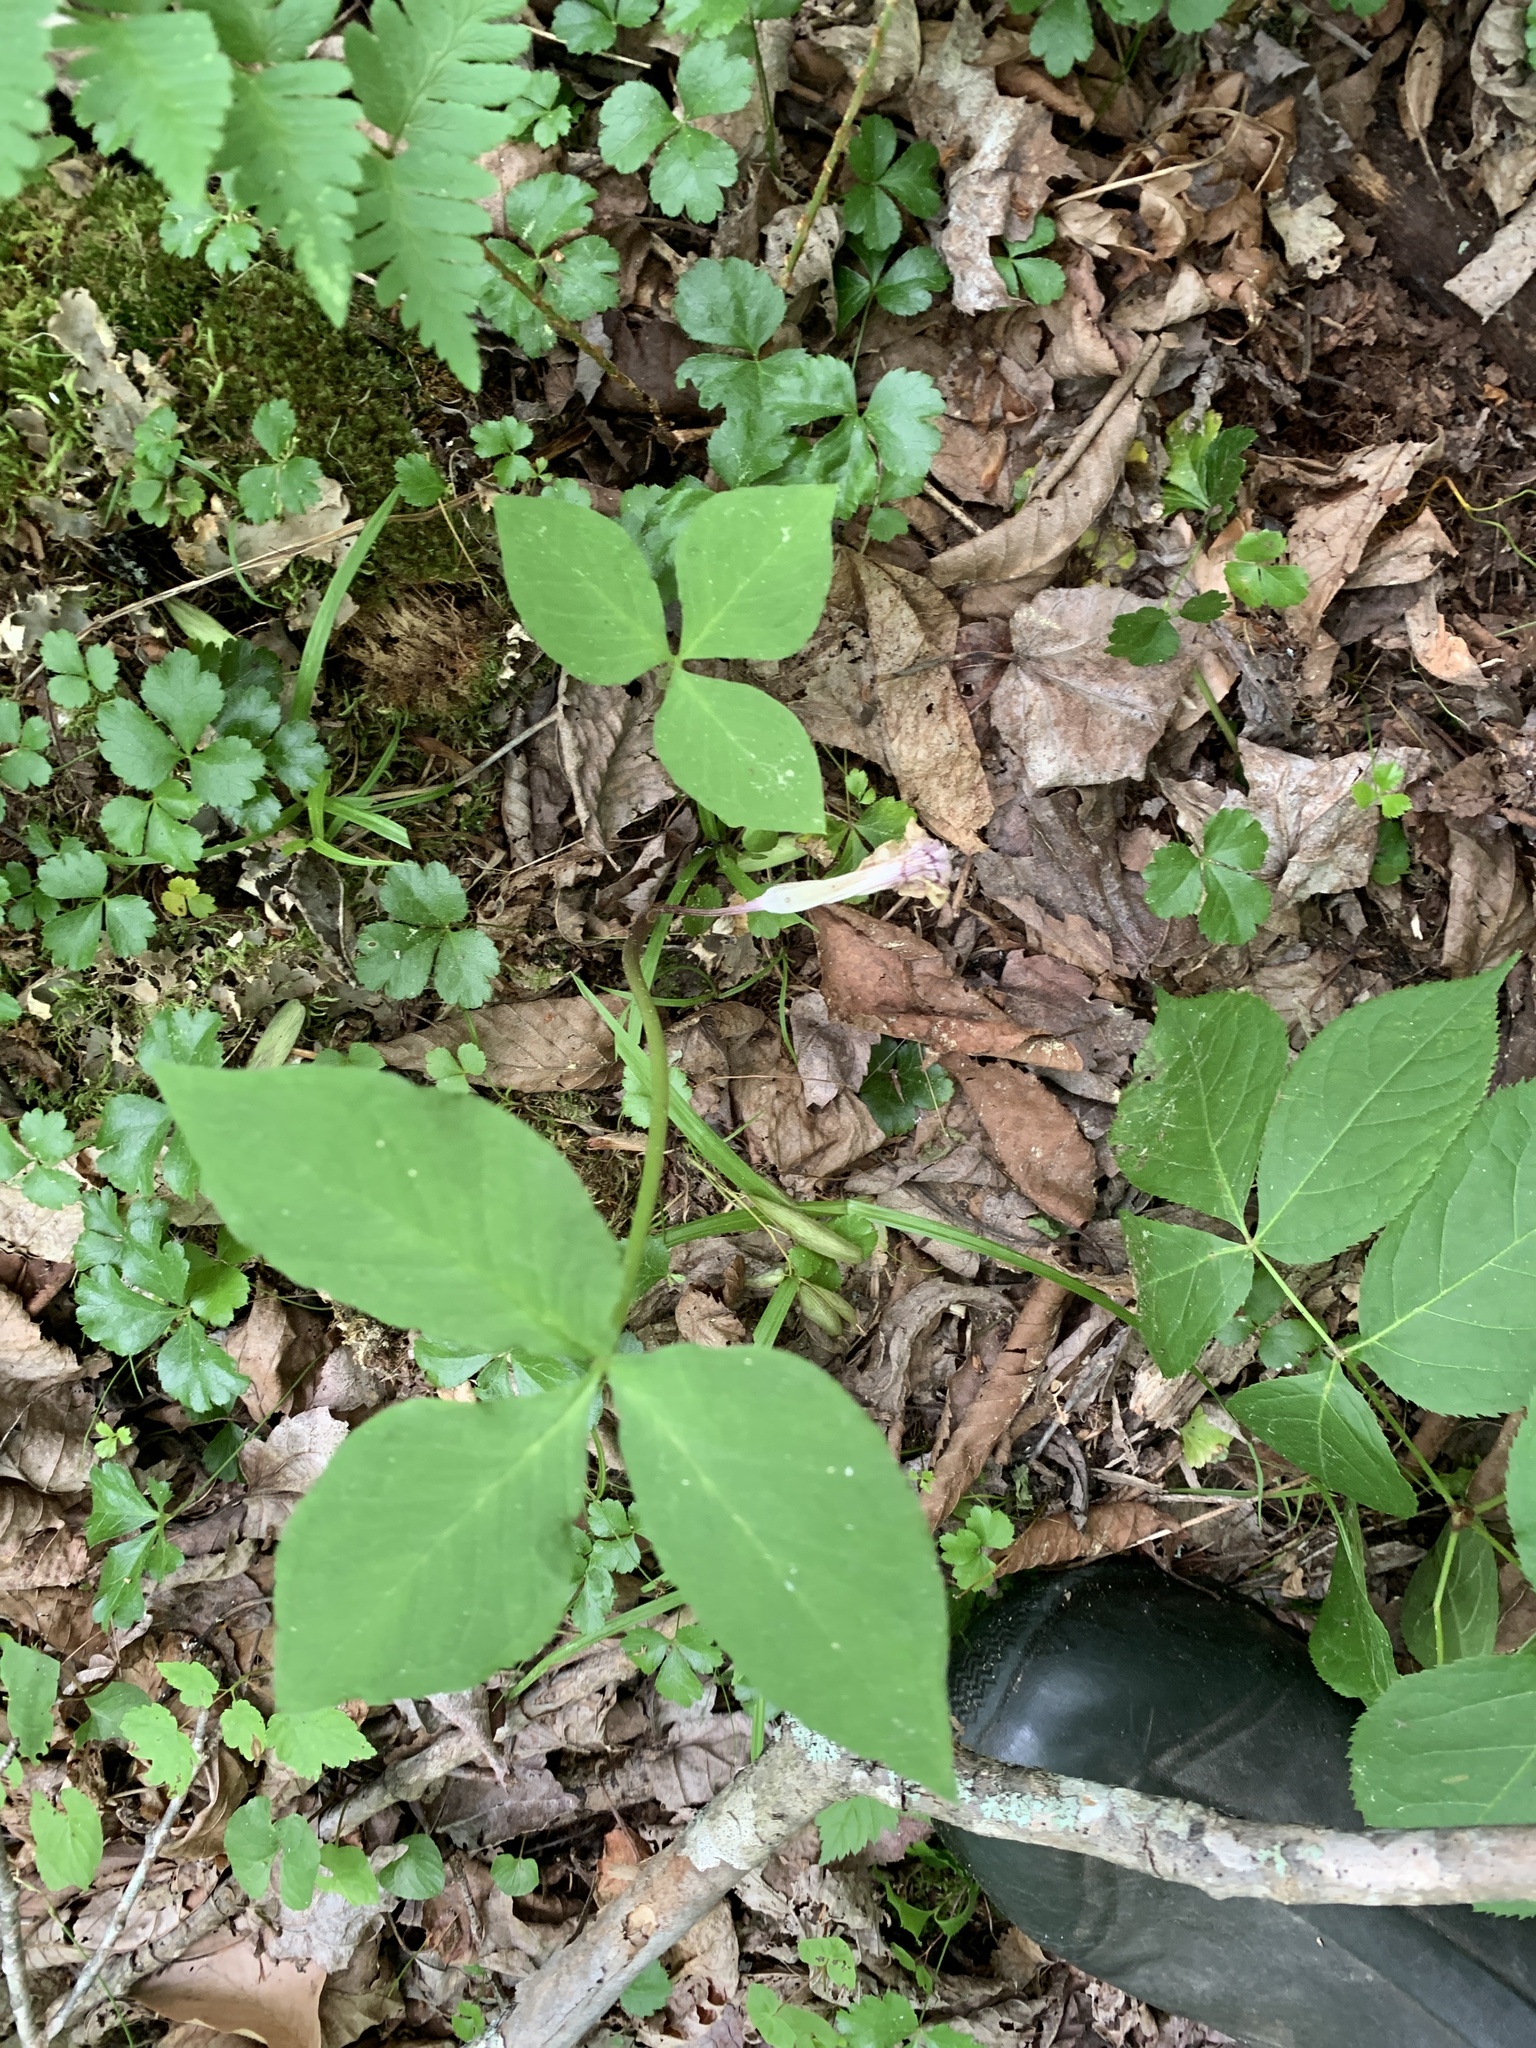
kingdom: Plantae
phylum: Tracheophyta
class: Liliopsida
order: Alismatales
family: Araceae
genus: Arisaema
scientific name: Arisaema triphyllum
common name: Jack-in-the-pulpit
